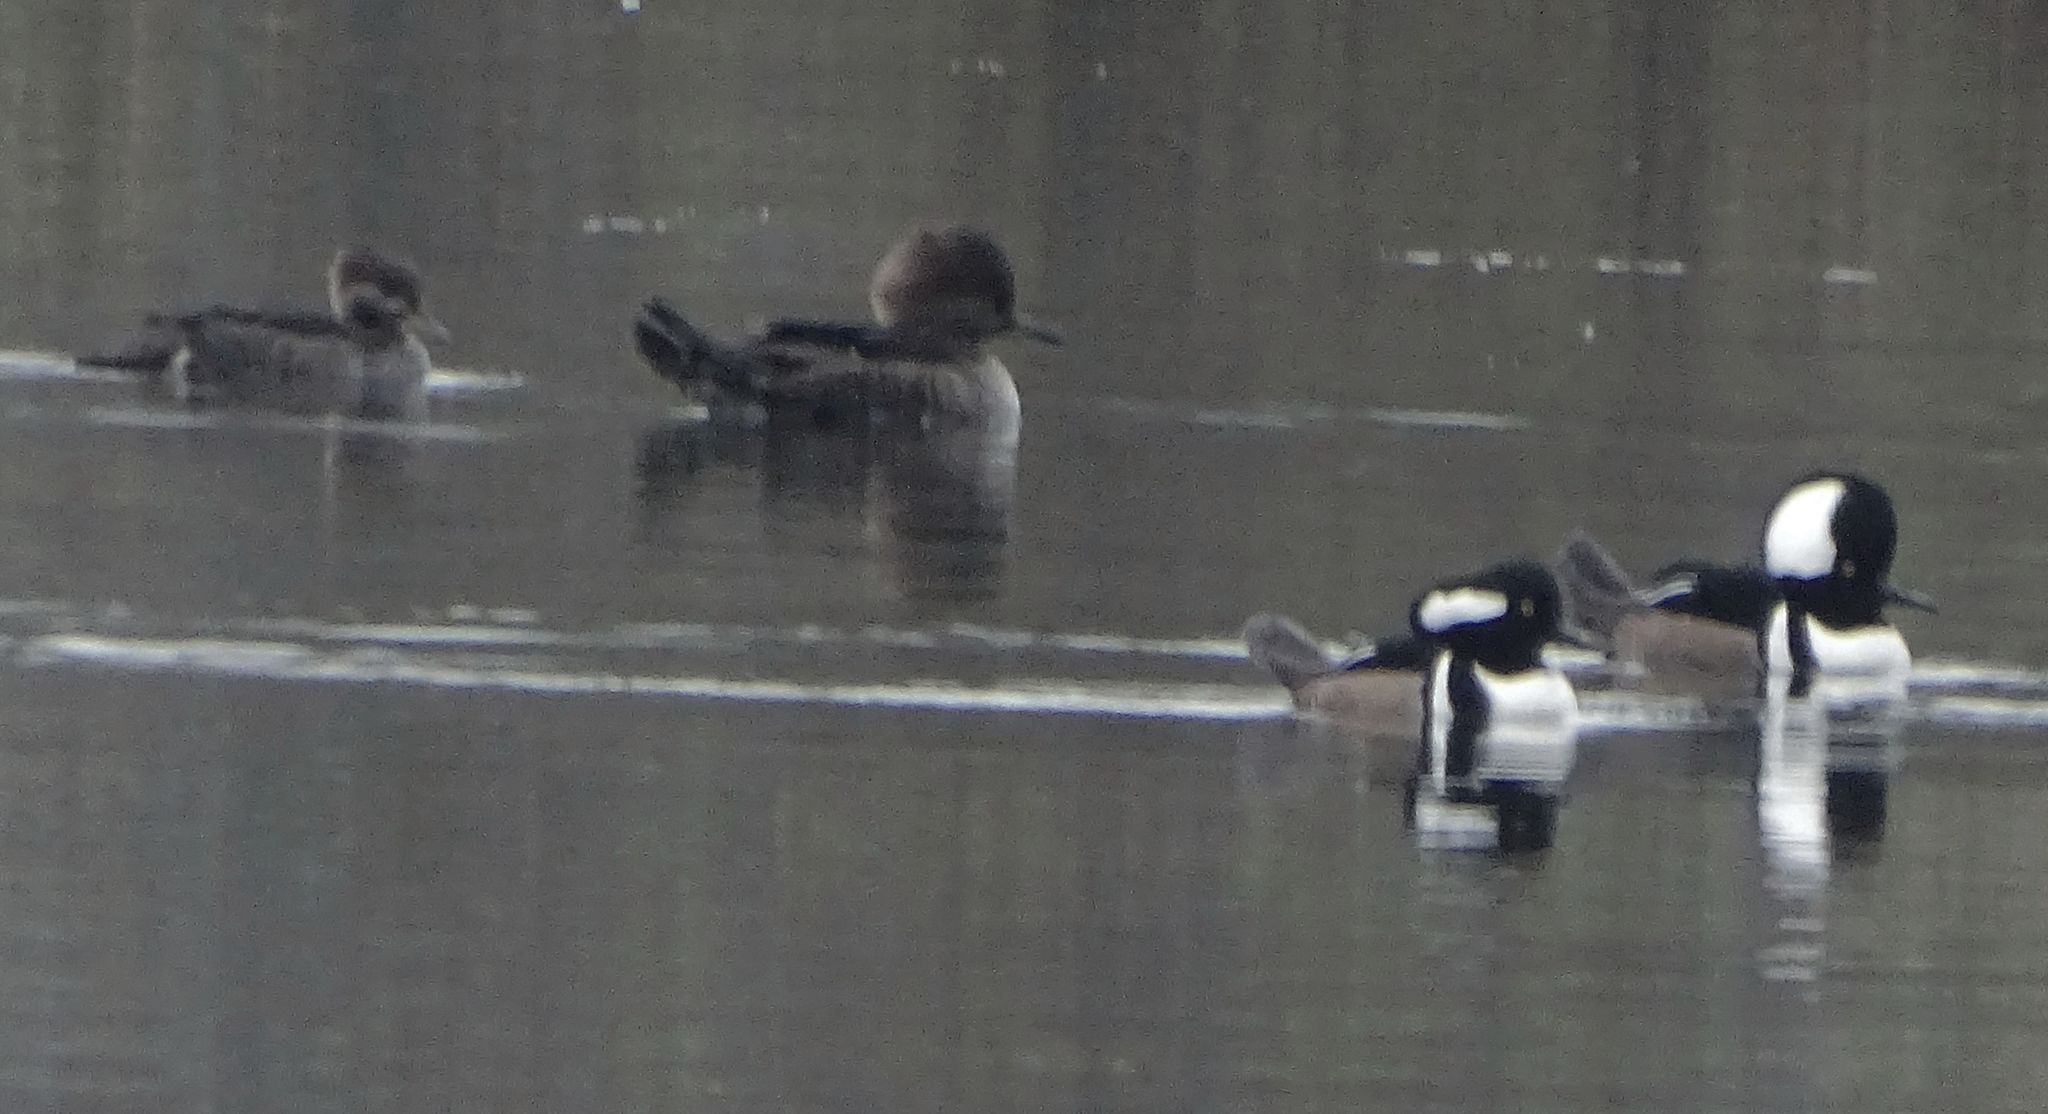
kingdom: Animalia
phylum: Chordata
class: Aves
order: Anseriformes
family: Anatidae
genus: Lophodytes
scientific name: Lophodytes cucullatus
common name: Hooded merganser
